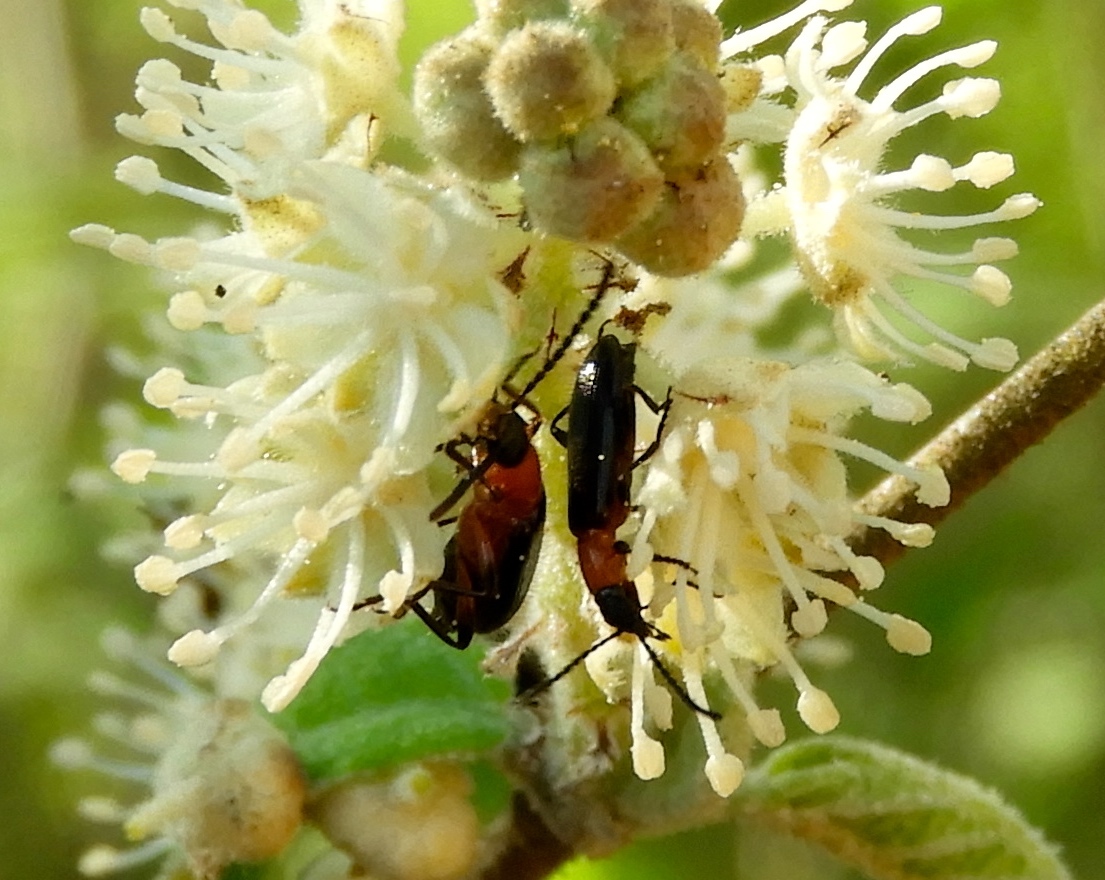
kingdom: Animalia
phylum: Arthropoda
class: Insecta
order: Coleoptera
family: Tenebrionidae
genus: Statira
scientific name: Statira
